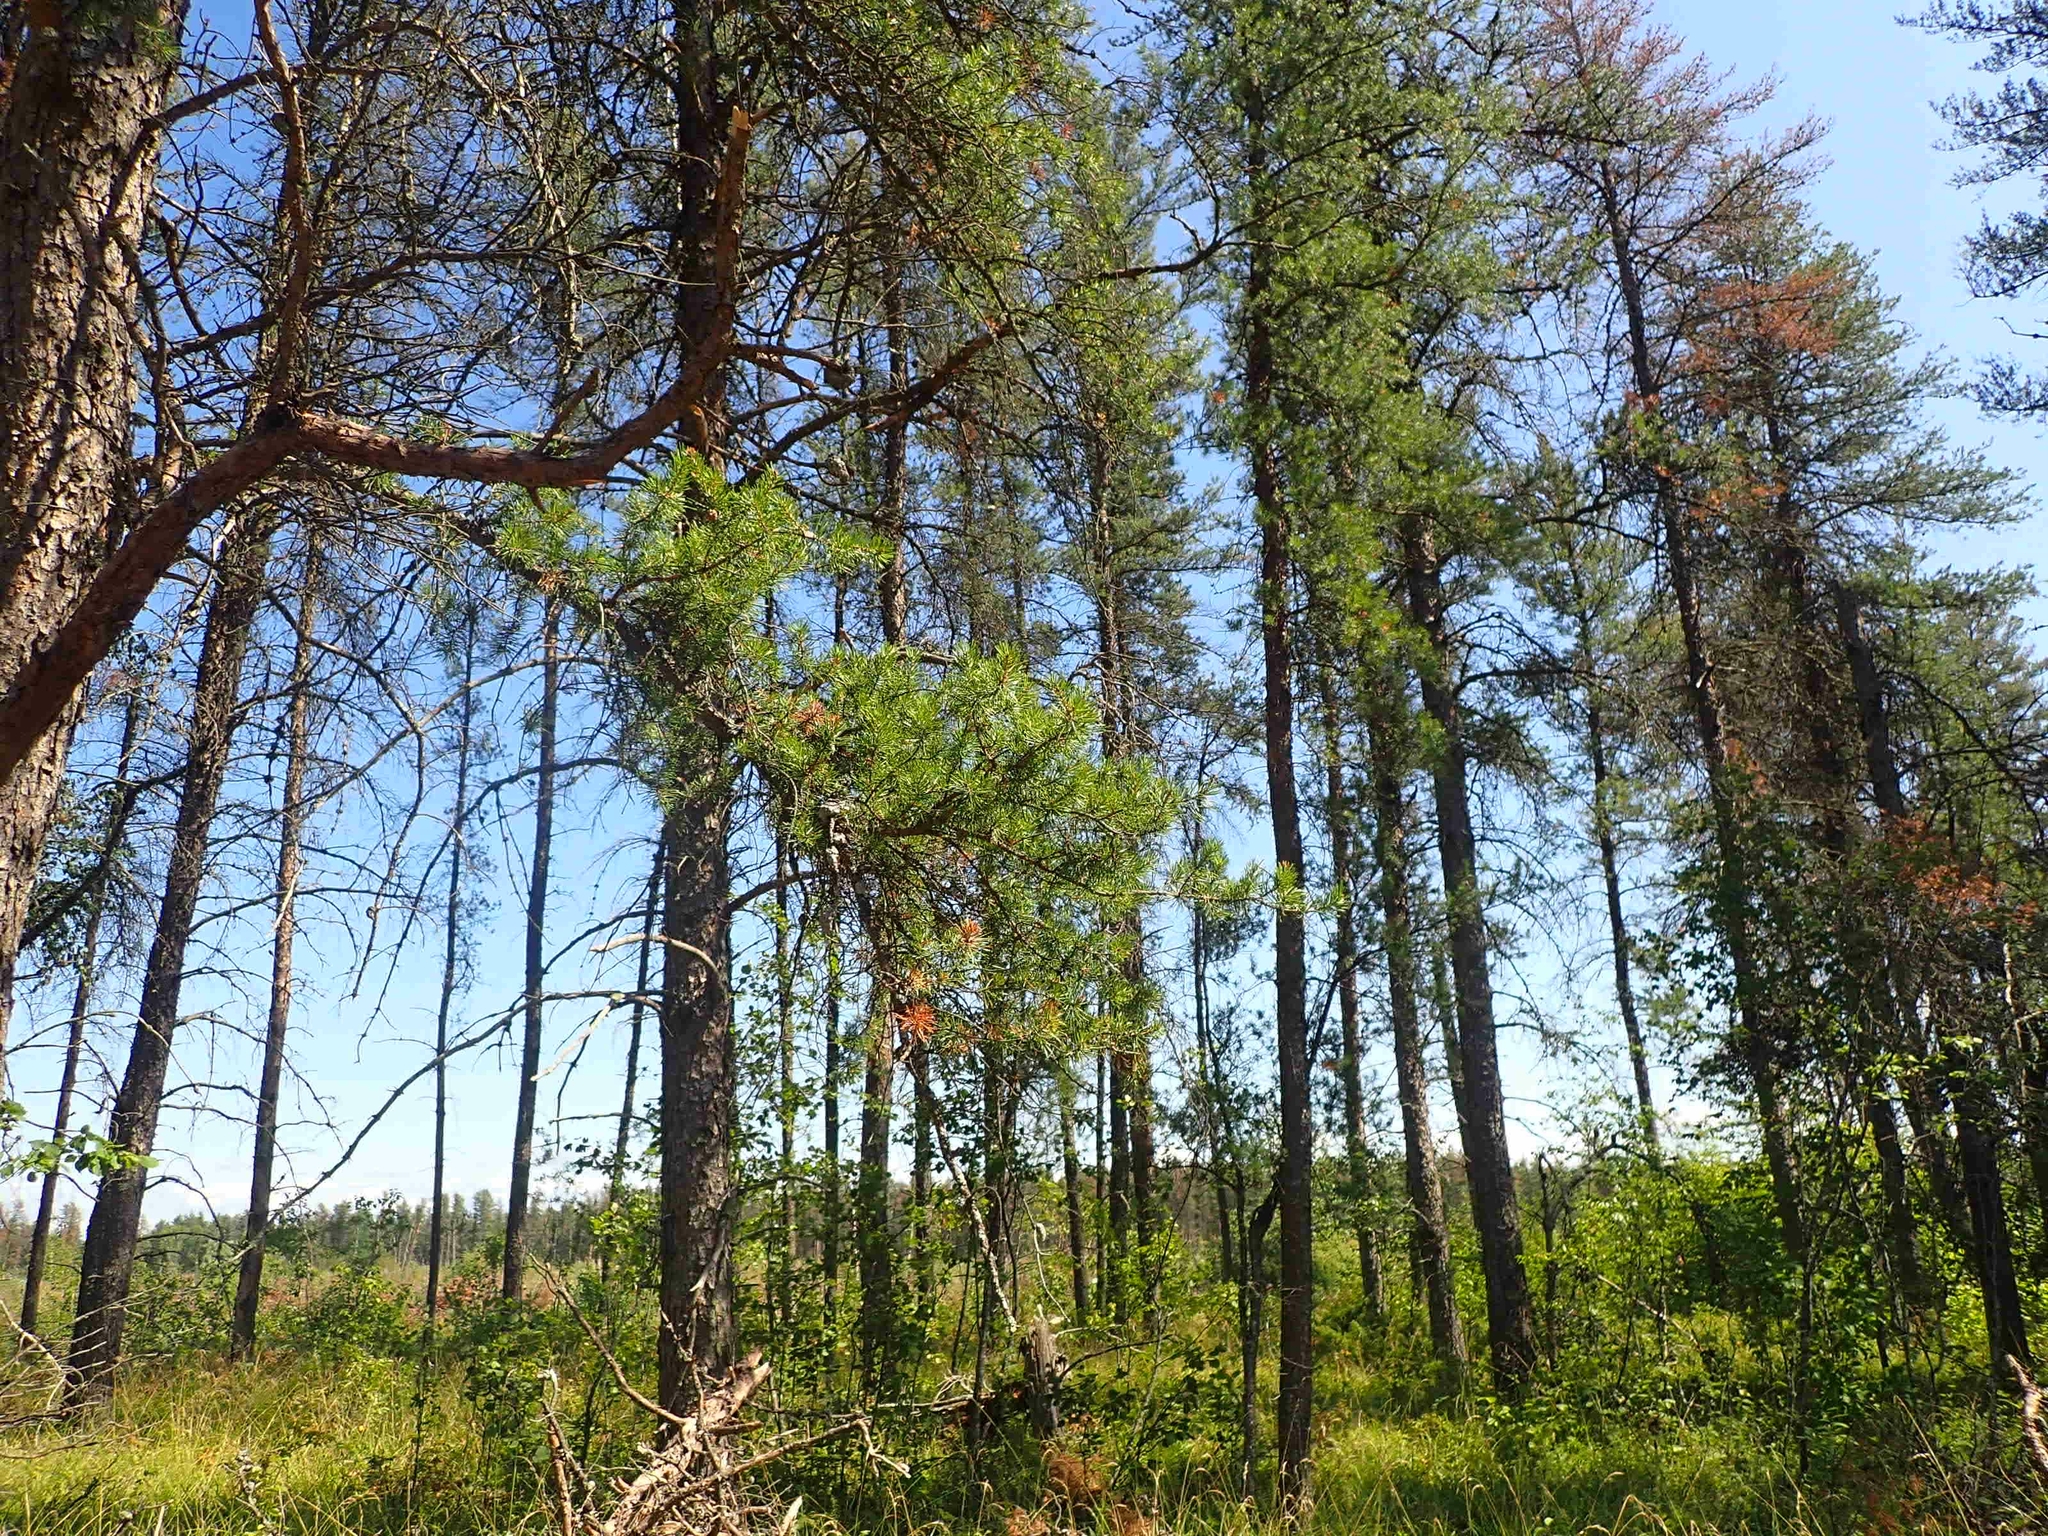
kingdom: Plantae
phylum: Tracheophyta
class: Pinopsida
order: Pinales
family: Pinaceae
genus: Pinus
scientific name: Pinus banksiana
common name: Jack pine
